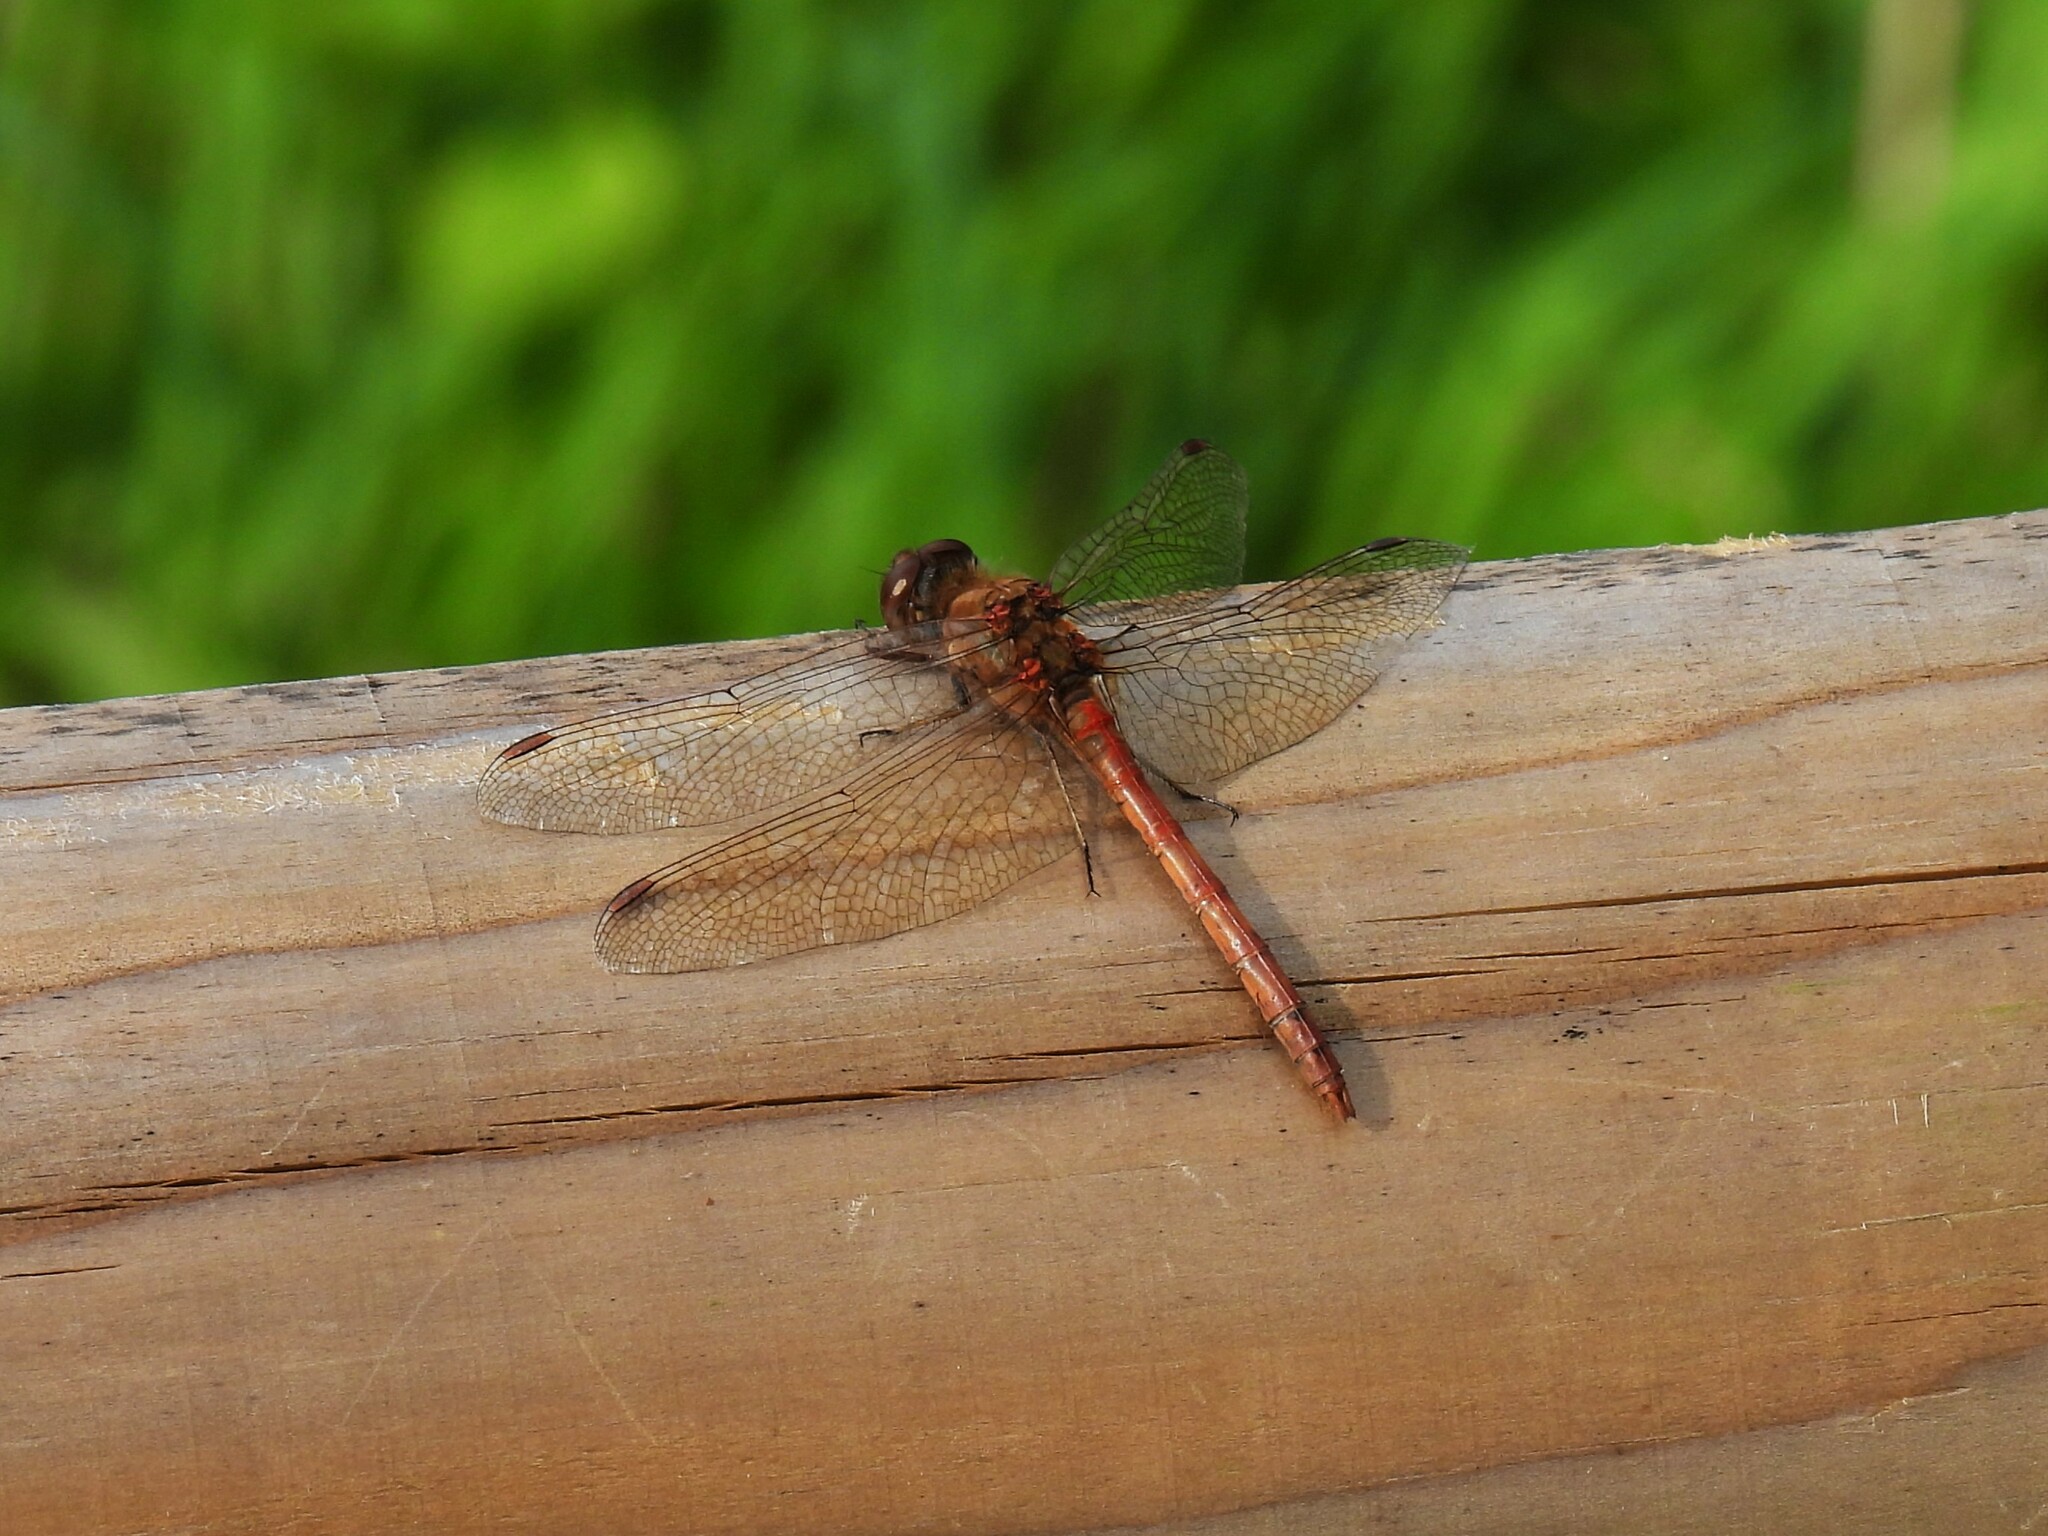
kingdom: Animalia
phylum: Arthropoda
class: Insecta
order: Odonata
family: Libellulidae
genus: Sympetrum
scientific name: Sympetrum striolatum
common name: Common darter
